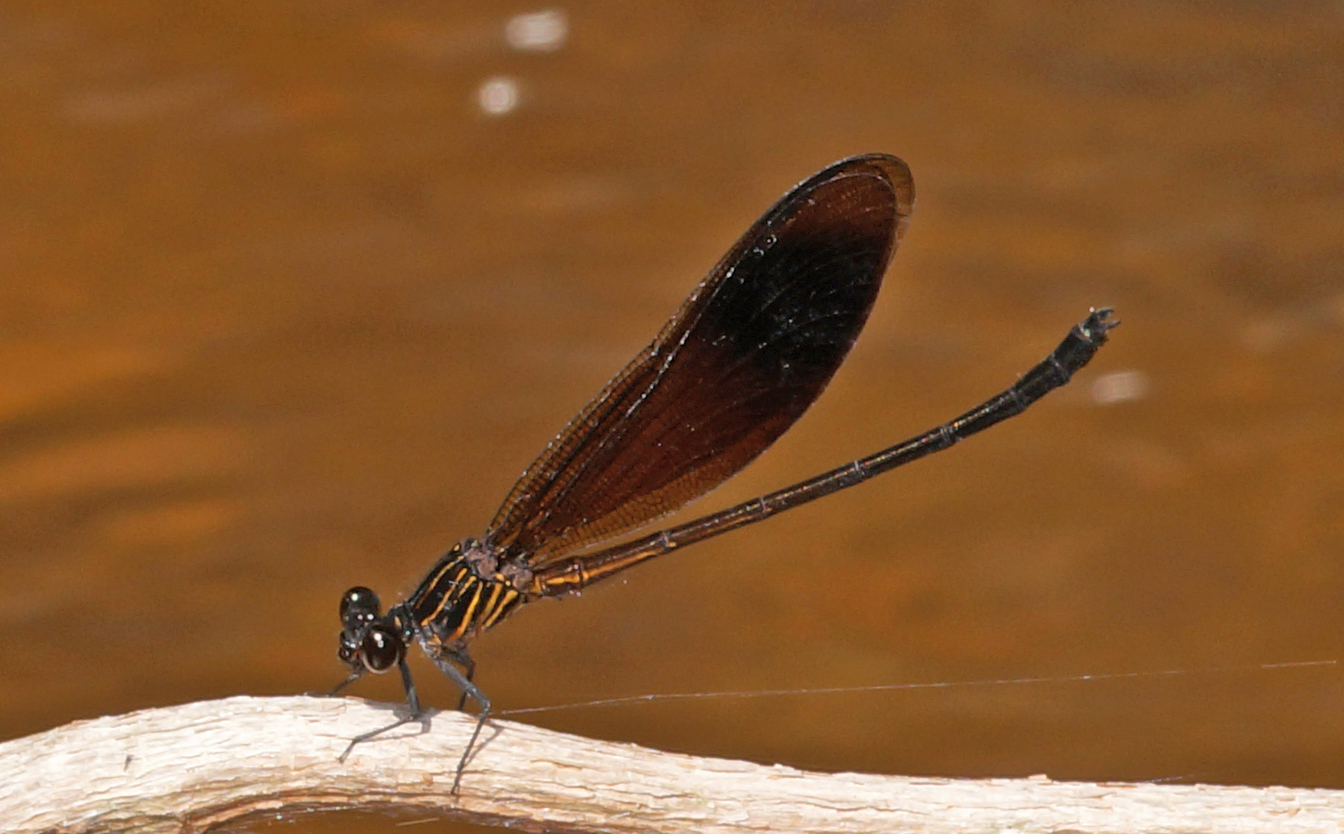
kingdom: Animalia
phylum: Arthropoda
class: Insecta
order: Odonata
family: Euphaeidae
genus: Euphaea
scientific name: Euphaea masoni
